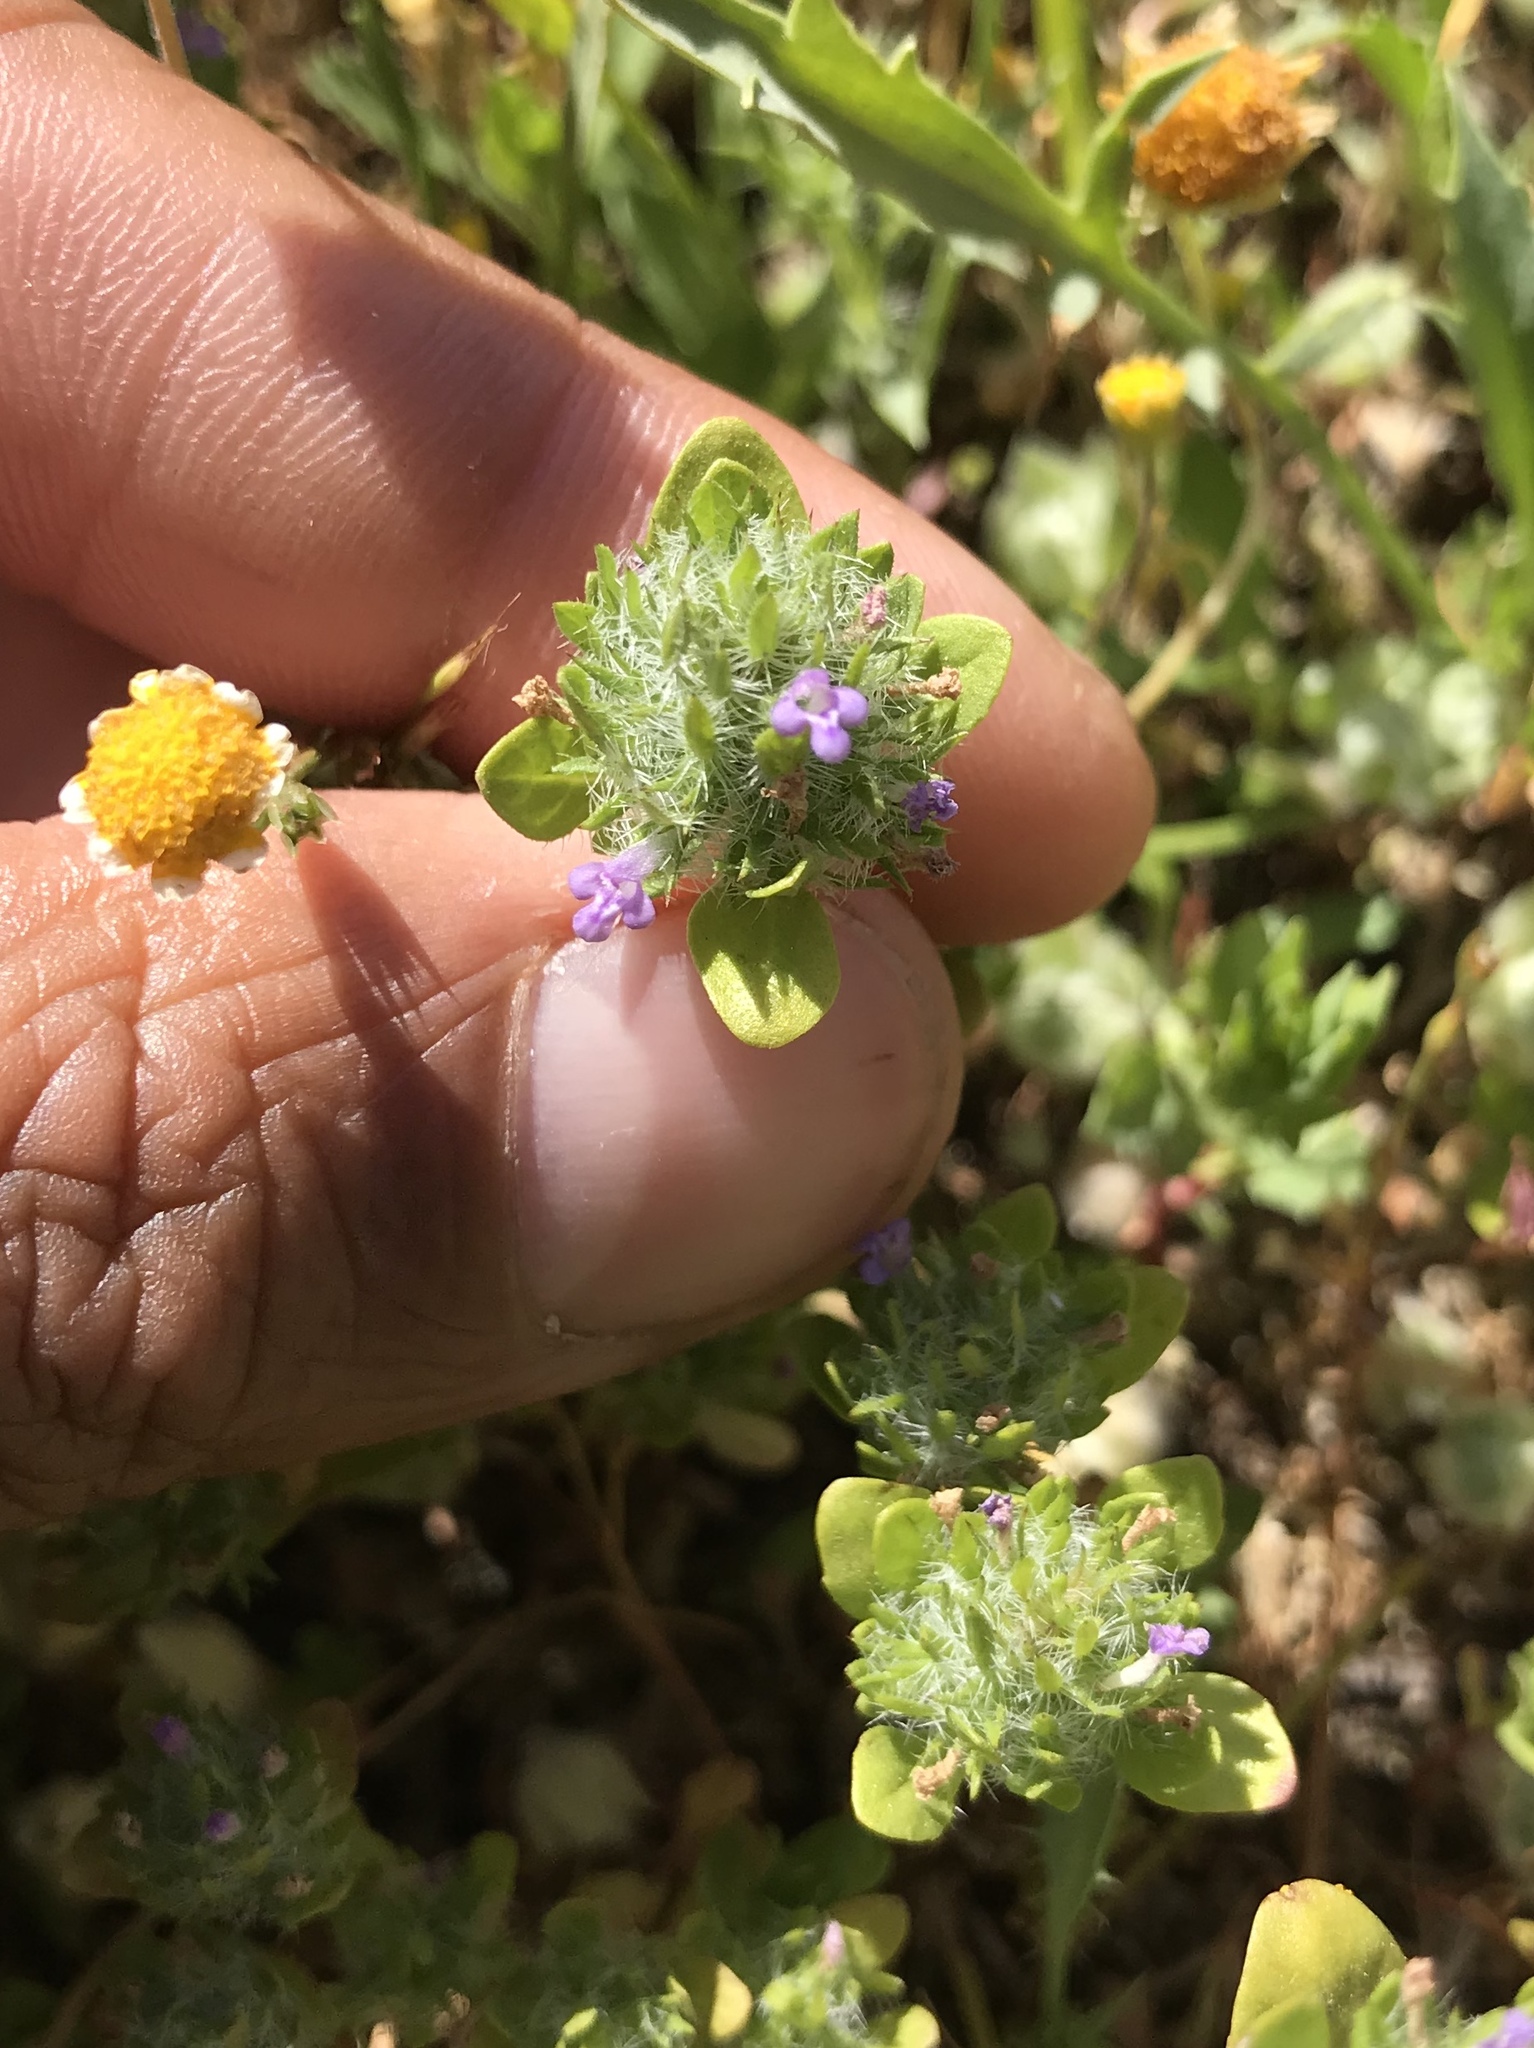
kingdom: Plantae
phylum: Tracheophyta
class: Magnoliopsida
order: Lamiales
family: Lamiaceae
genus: Pogogyne
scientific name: Pogogyne zizyphoroides
